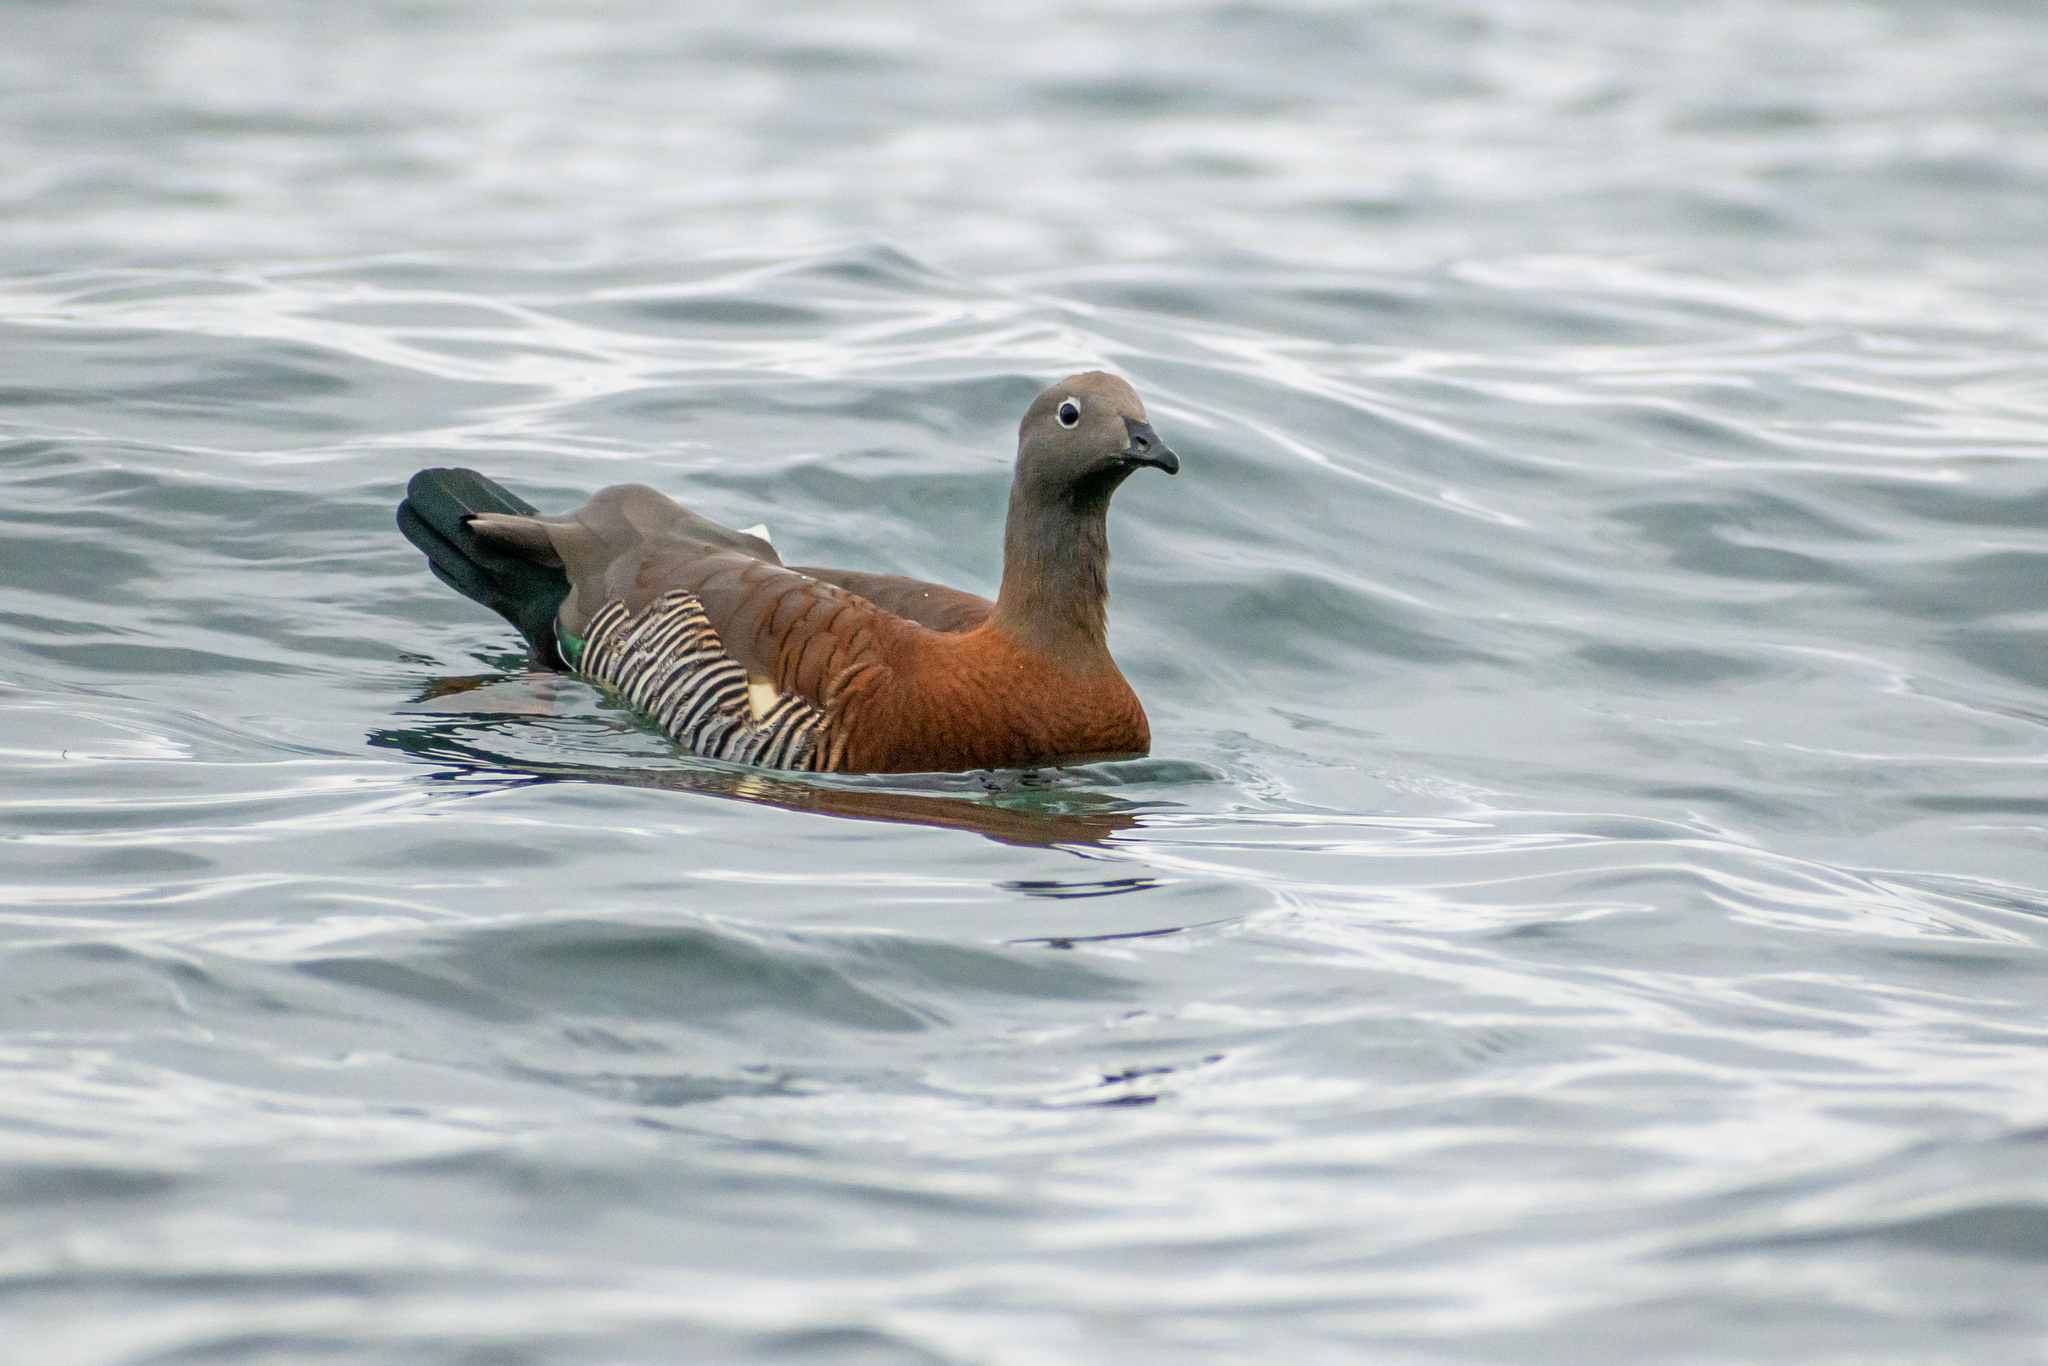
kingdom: Animalia
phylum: Chordata
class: Aves
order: Anseriformes
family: Anatidae
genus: Chloephaga
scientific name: Chloephaga poliocephala
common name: Ashy-headed goose
